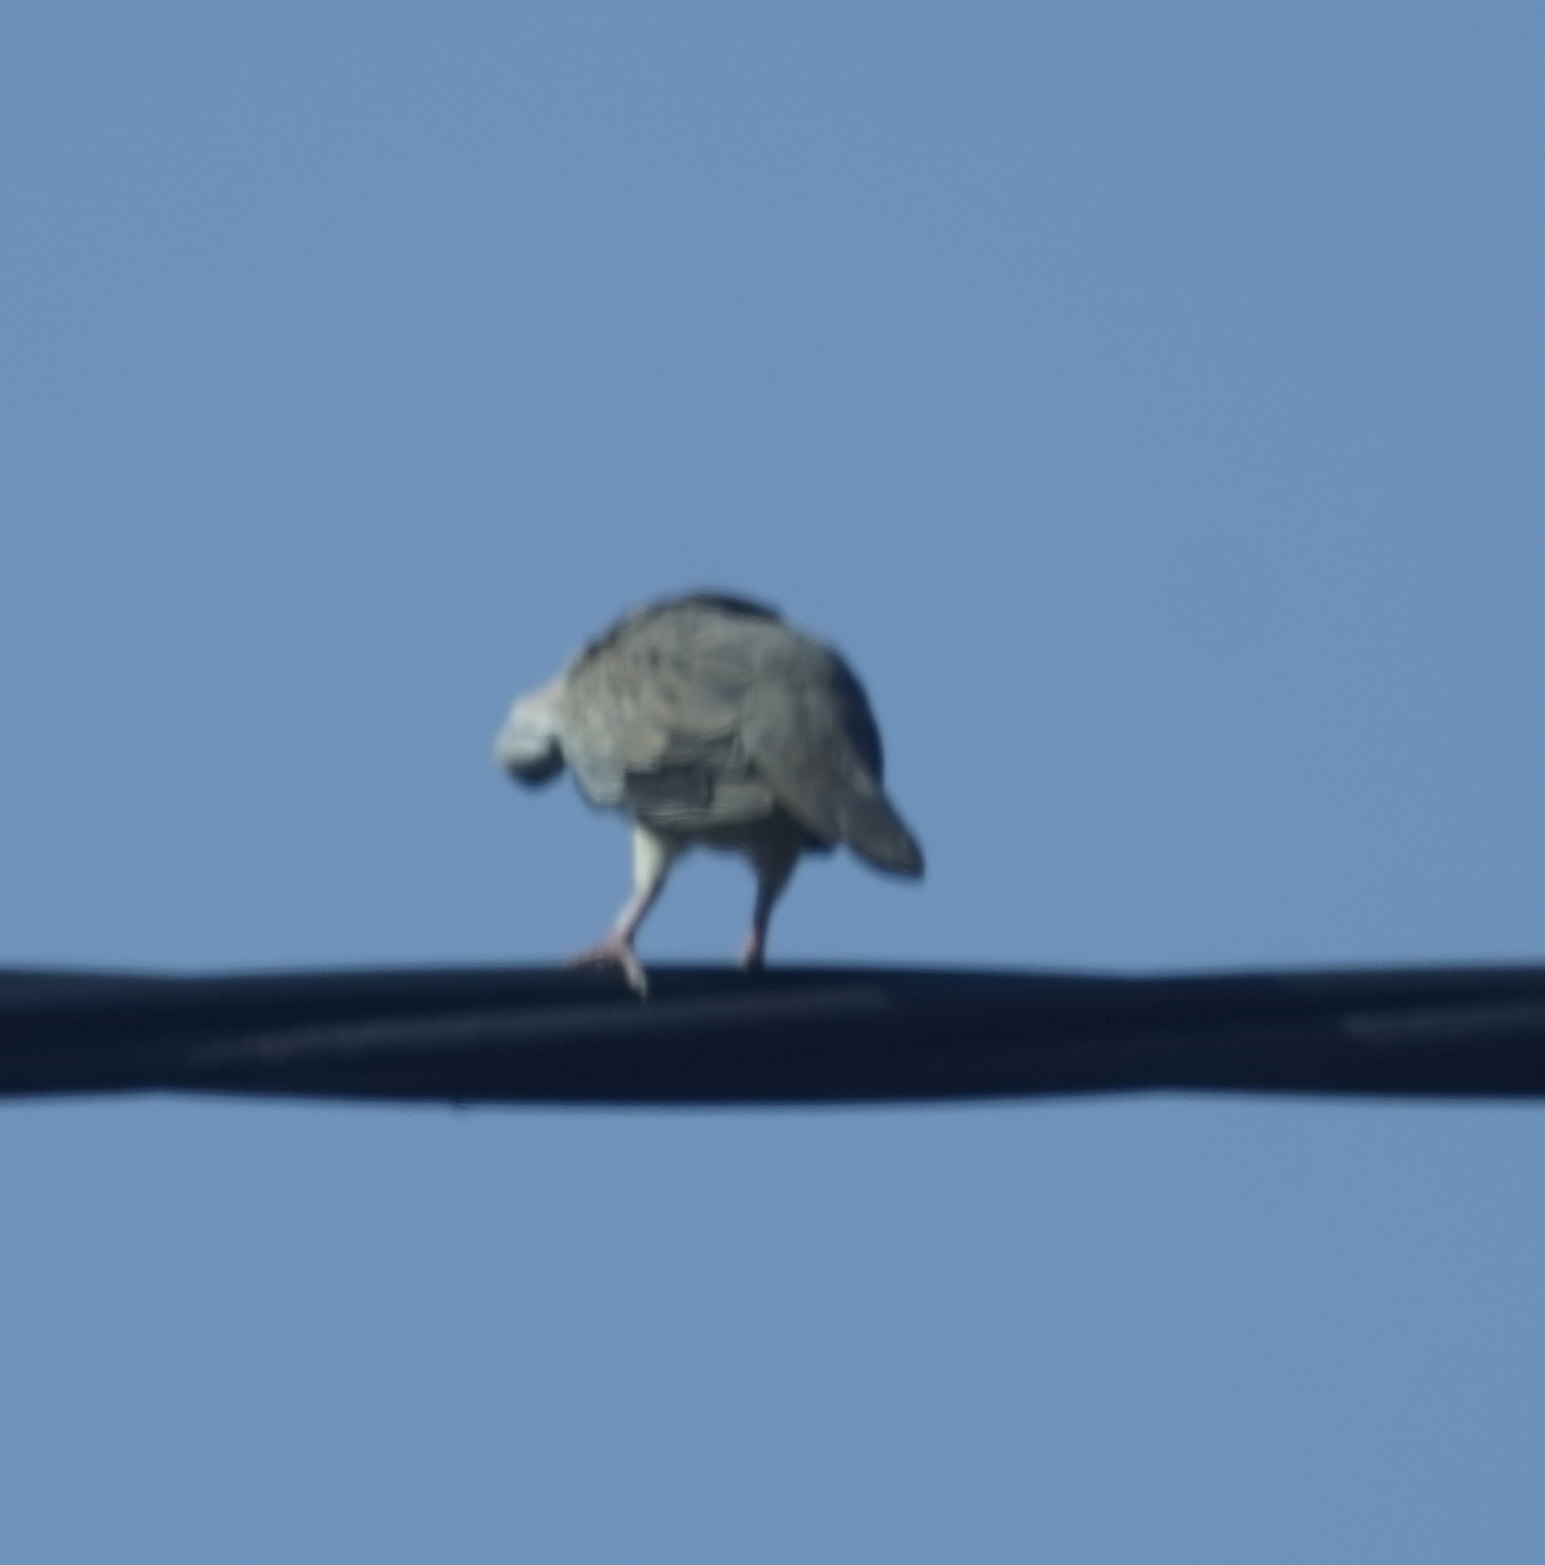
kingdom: Animalia
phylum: Chordata
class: Aves
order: Columbiformes
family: Columbidae
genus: Spilopelia
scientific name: Spilopelia chinensis
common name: Spotted dove
